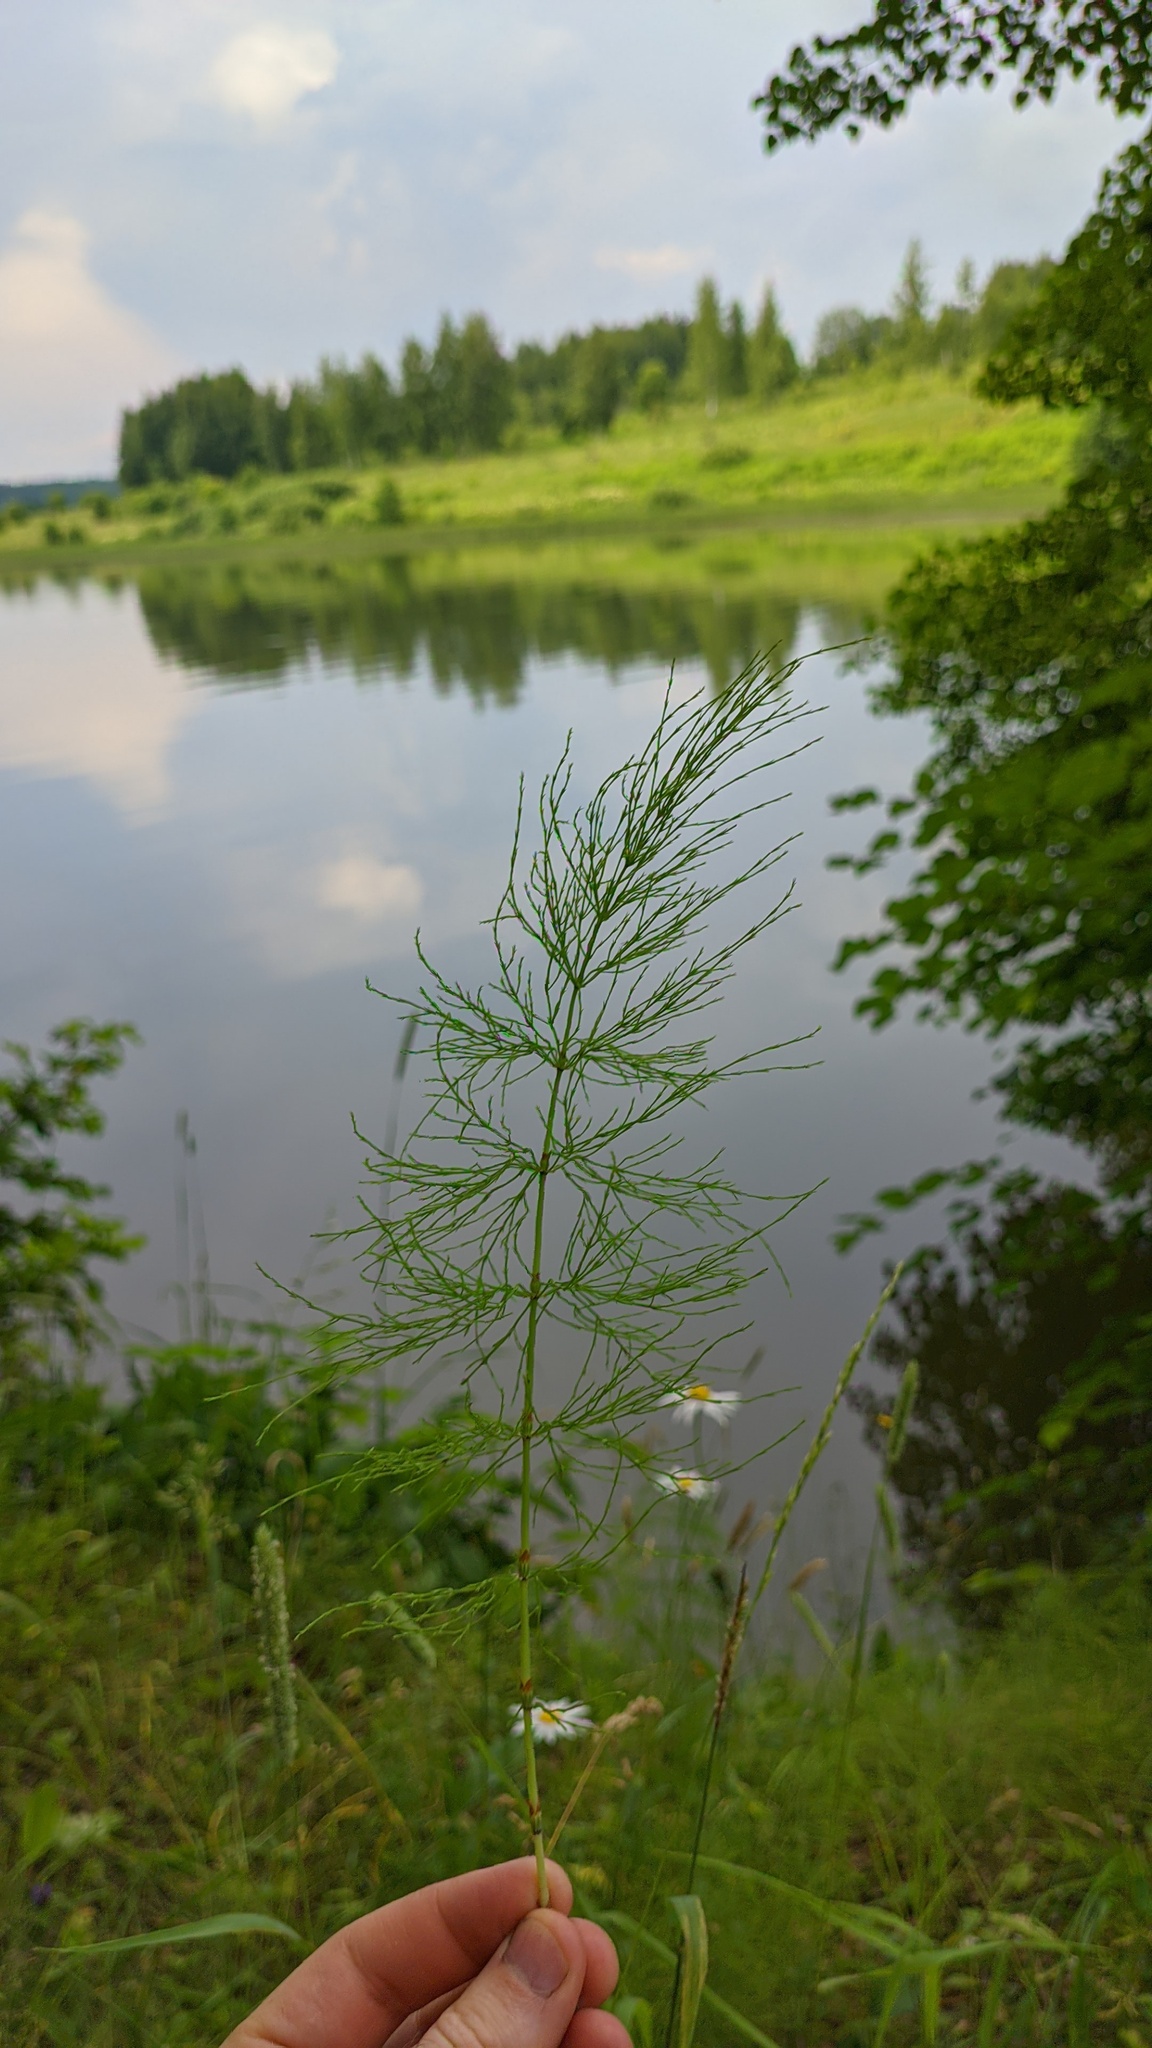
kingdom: Plantae
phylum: Tracheophyta
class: Polypodiopsida
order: Equisetales
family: Equisetaceae
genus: Equisetum
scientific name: Equisetum sylvaticum
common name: Wood horsetail
